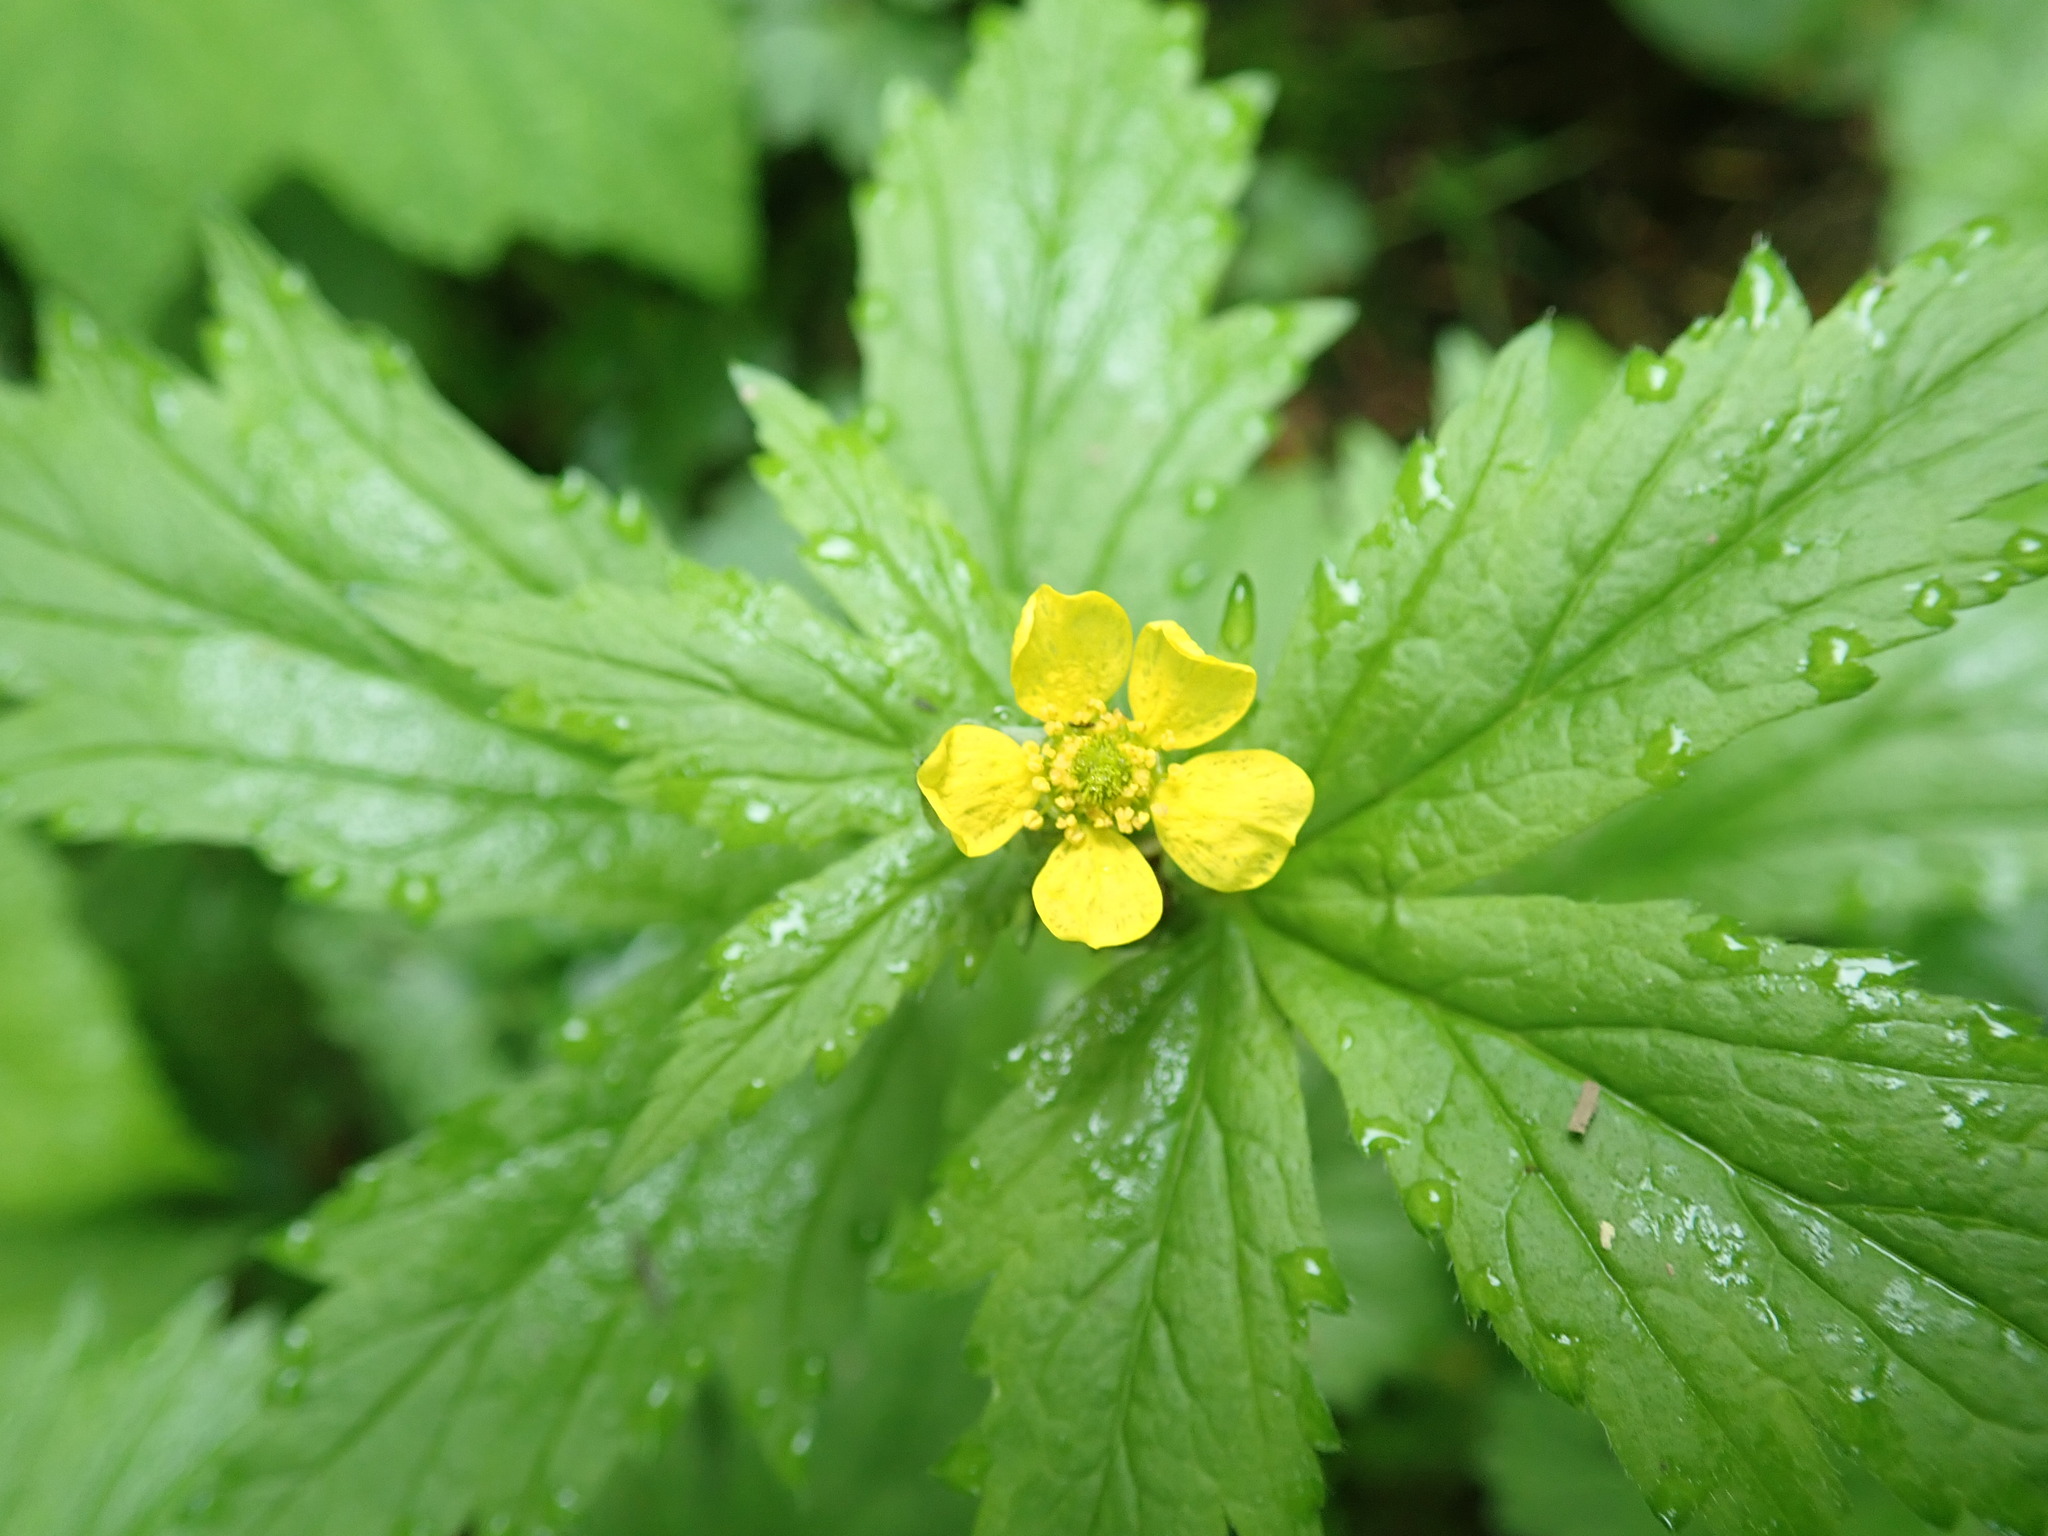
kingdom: Plantae
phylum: Tracheophyta
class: Magnoliopsida
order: Rosales
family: Rosaceae
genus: Geum
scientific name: Geum macrophyllum
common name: Large-leaved avens
